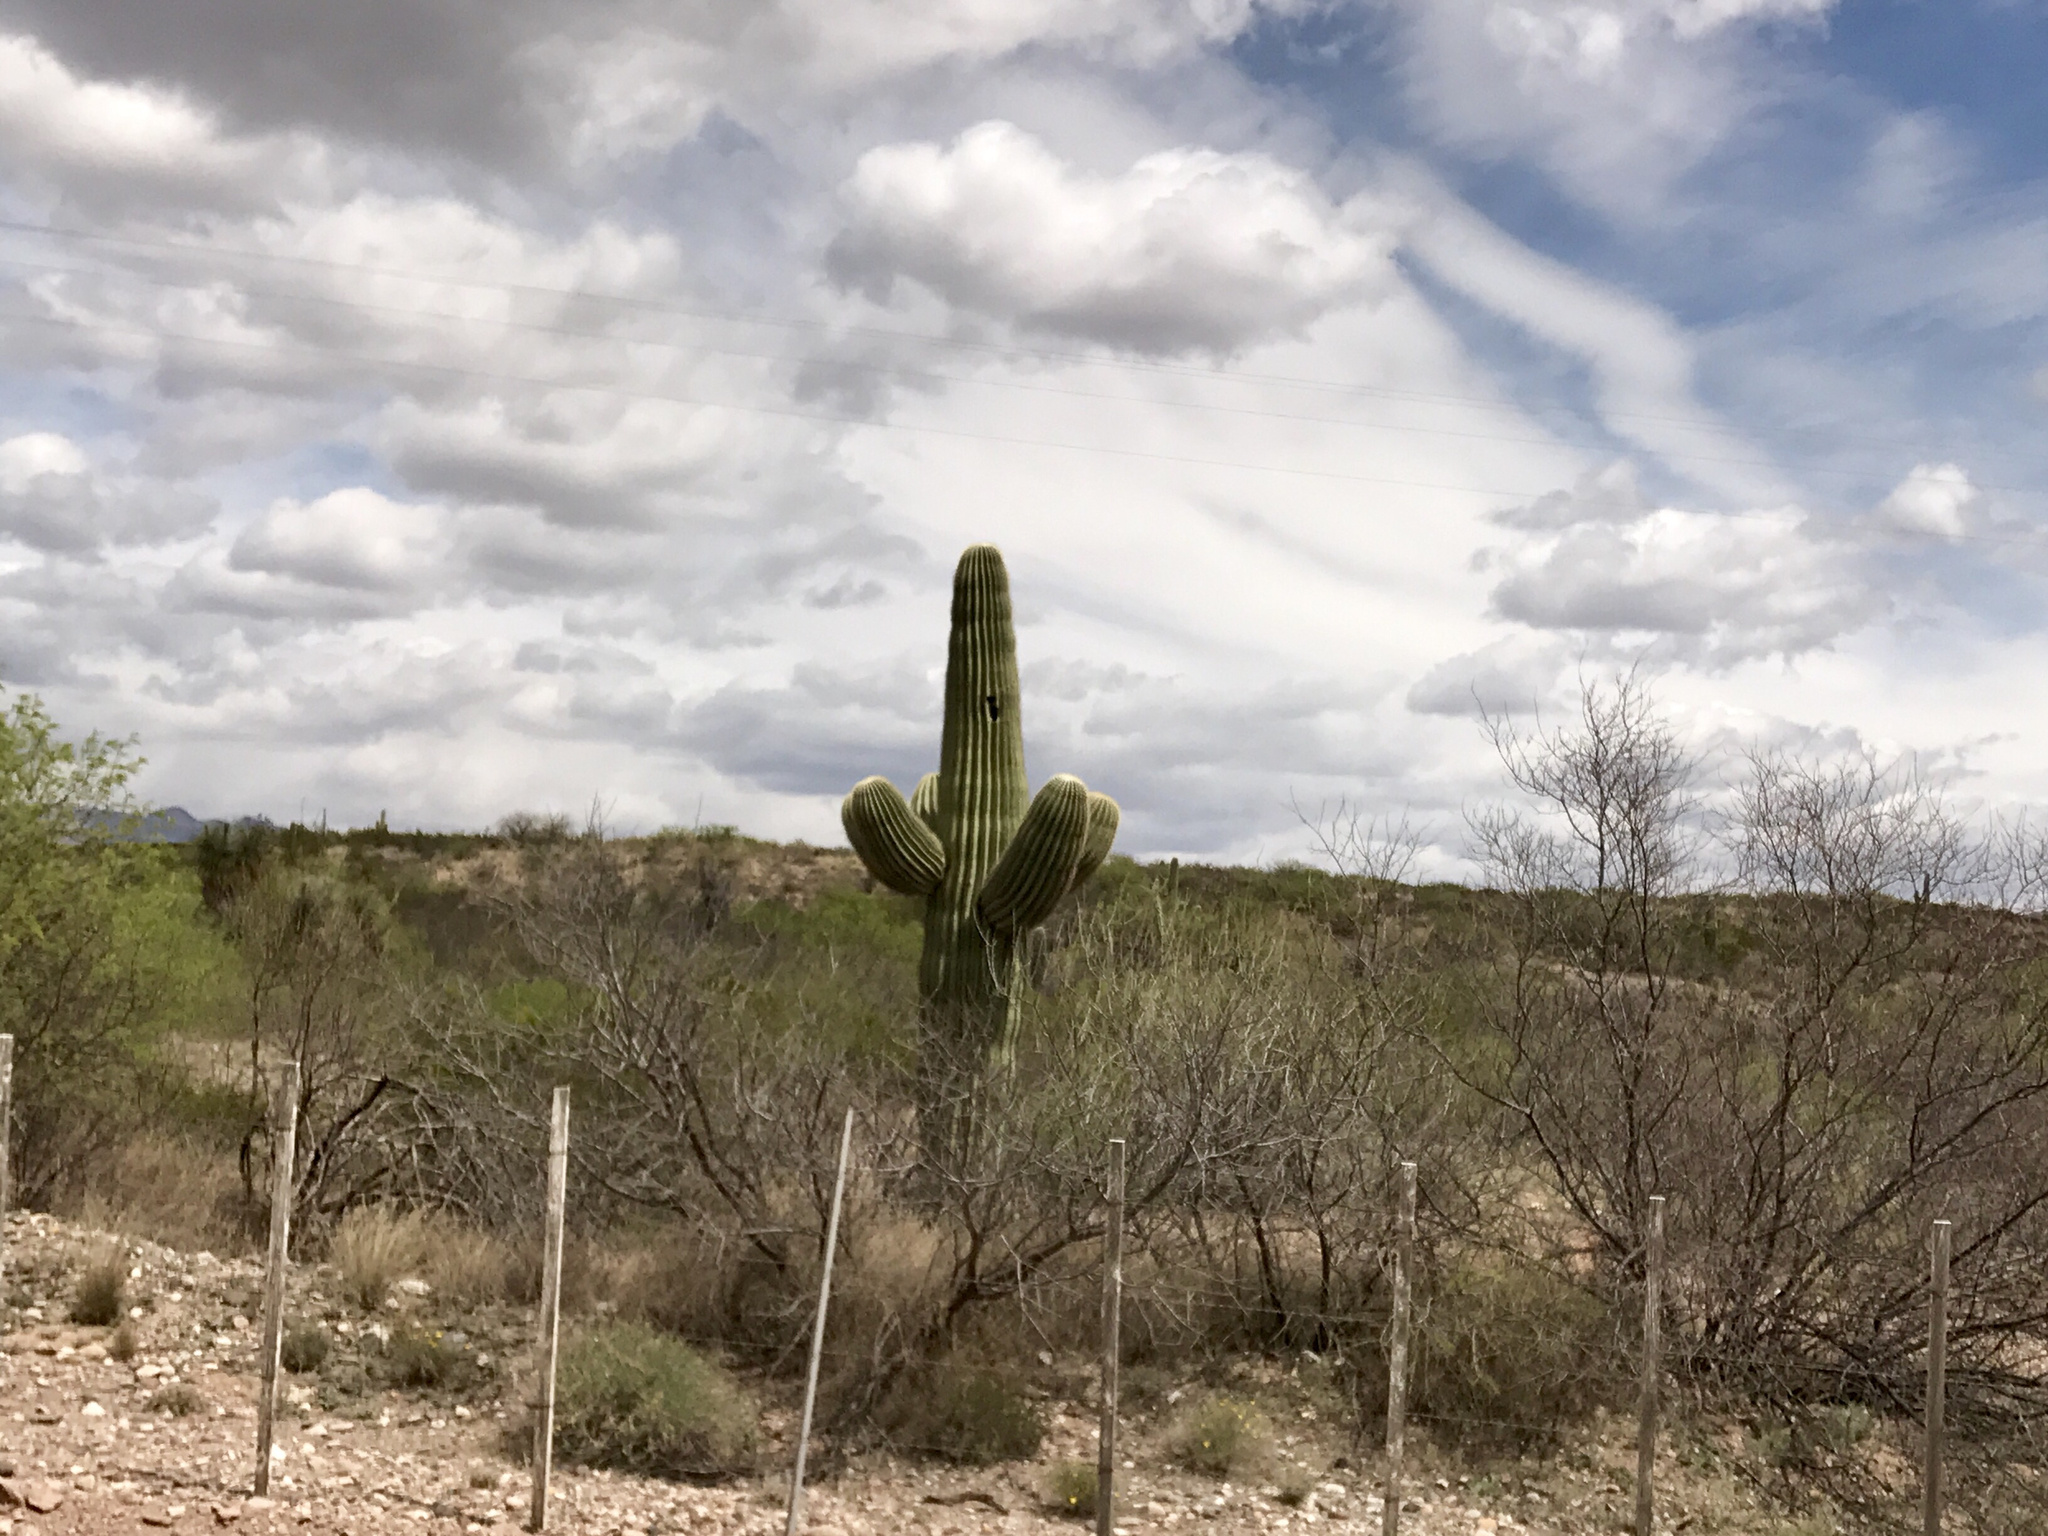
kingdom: Plantae
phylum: Tracheophyta
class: Magnoliopsida
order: Caryophyllales
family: Cactaceae
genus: Carnegiea
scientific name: Carnegiea gigantea
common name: Saguaro
